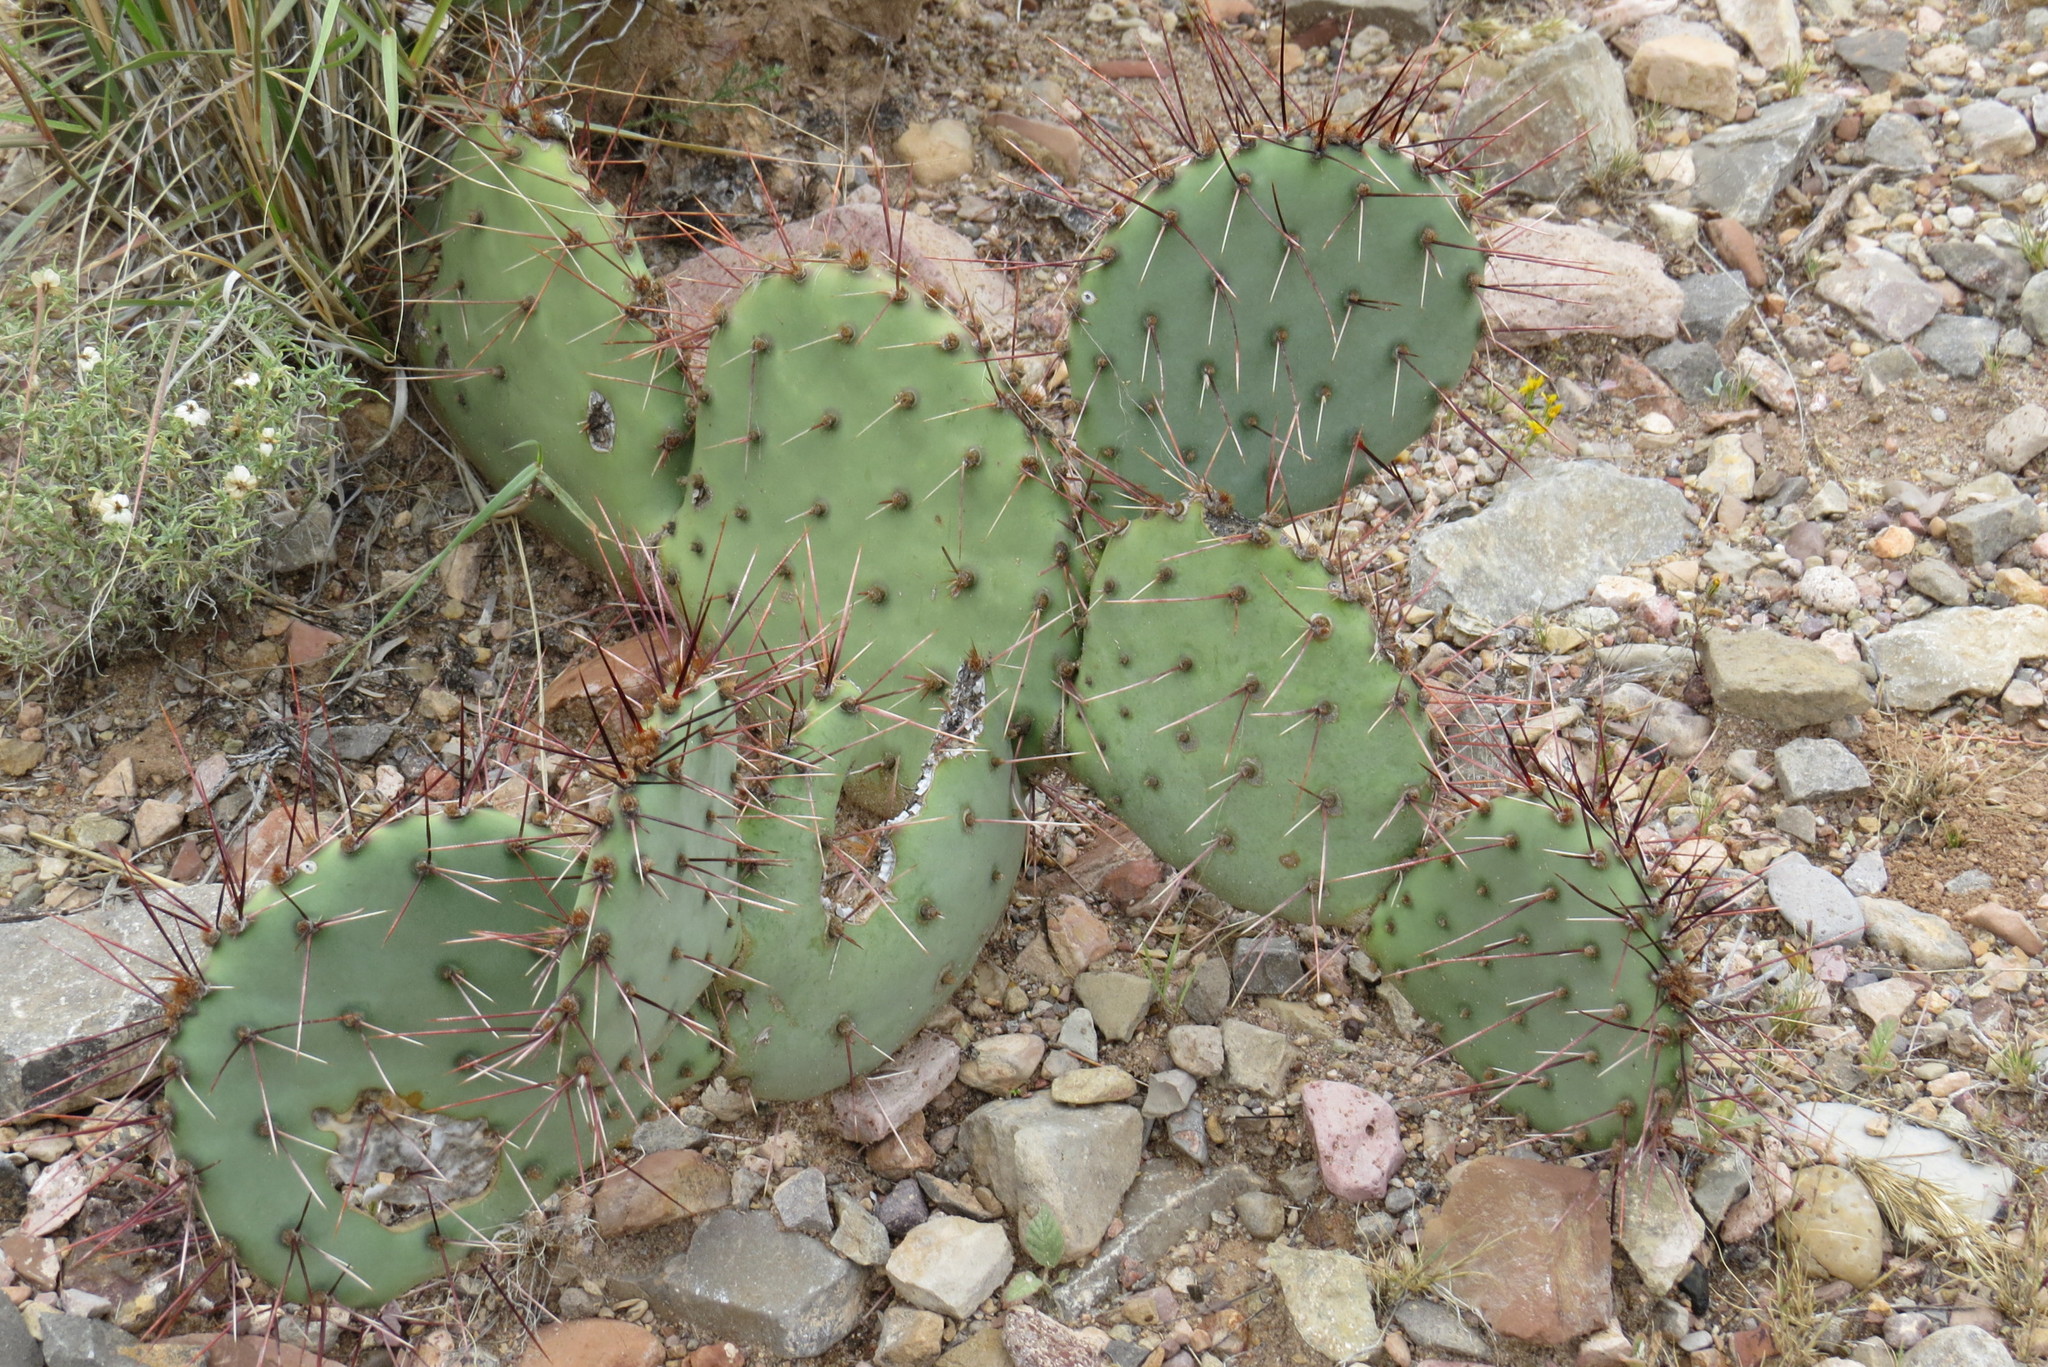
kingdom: Plantae
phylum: Tracheophyta
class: Magnoliopsida
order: Caryophyllales
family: Cactaceae
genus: Opuntia
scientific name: Opuntia phaeacantha
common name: New mexico prickly-pear
